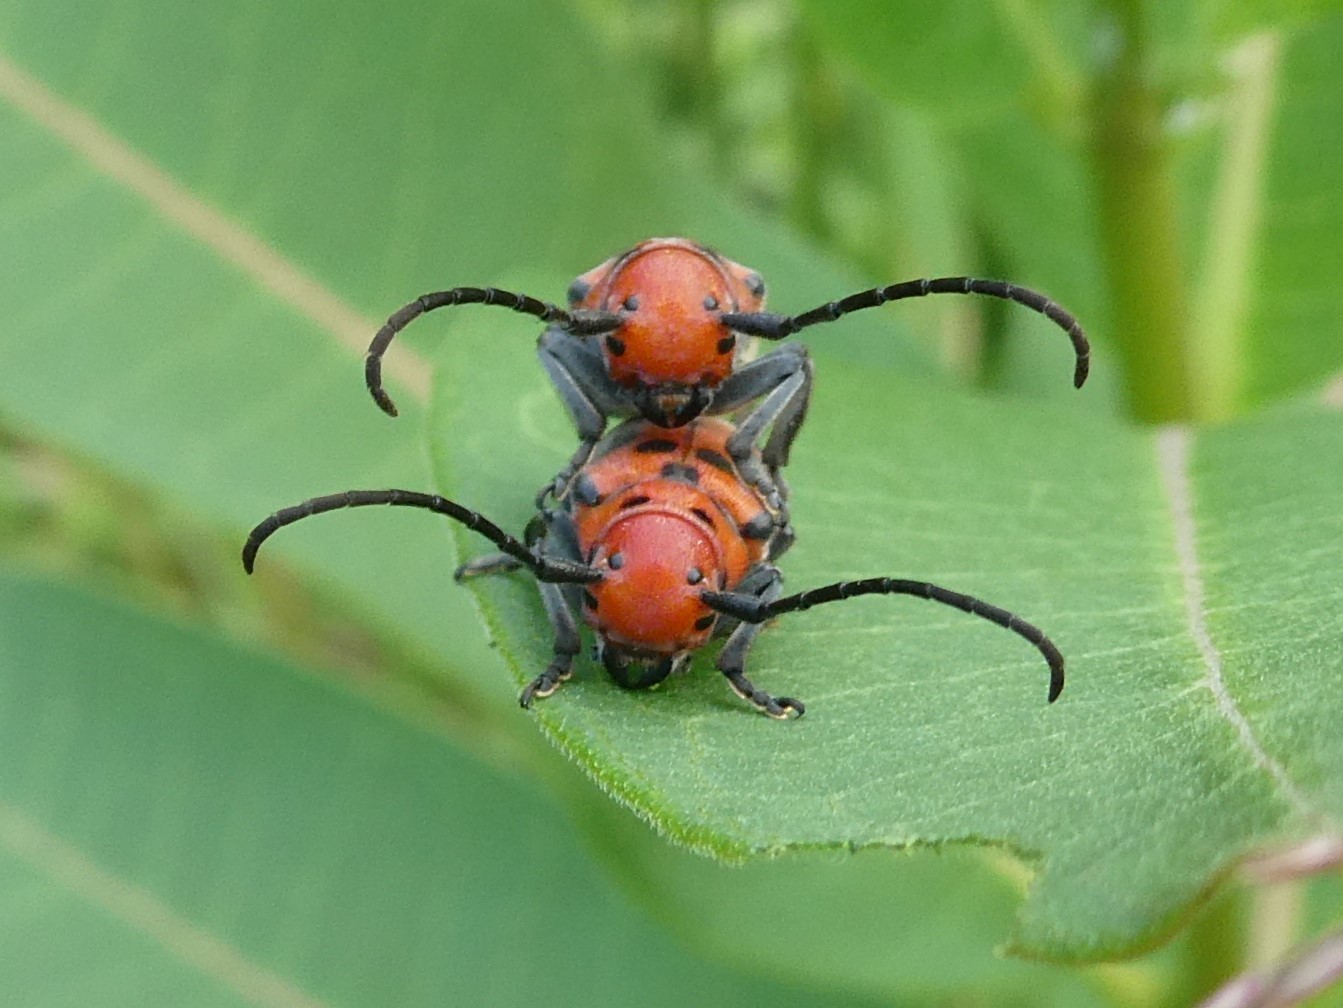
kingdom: Animalia
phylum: Arthropoda
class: Insecta
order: Coleoptera
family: Cerambycidae
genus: Tetraopes
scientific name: Tetraopes tetrophthalmus
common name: Red milkweed beetle
